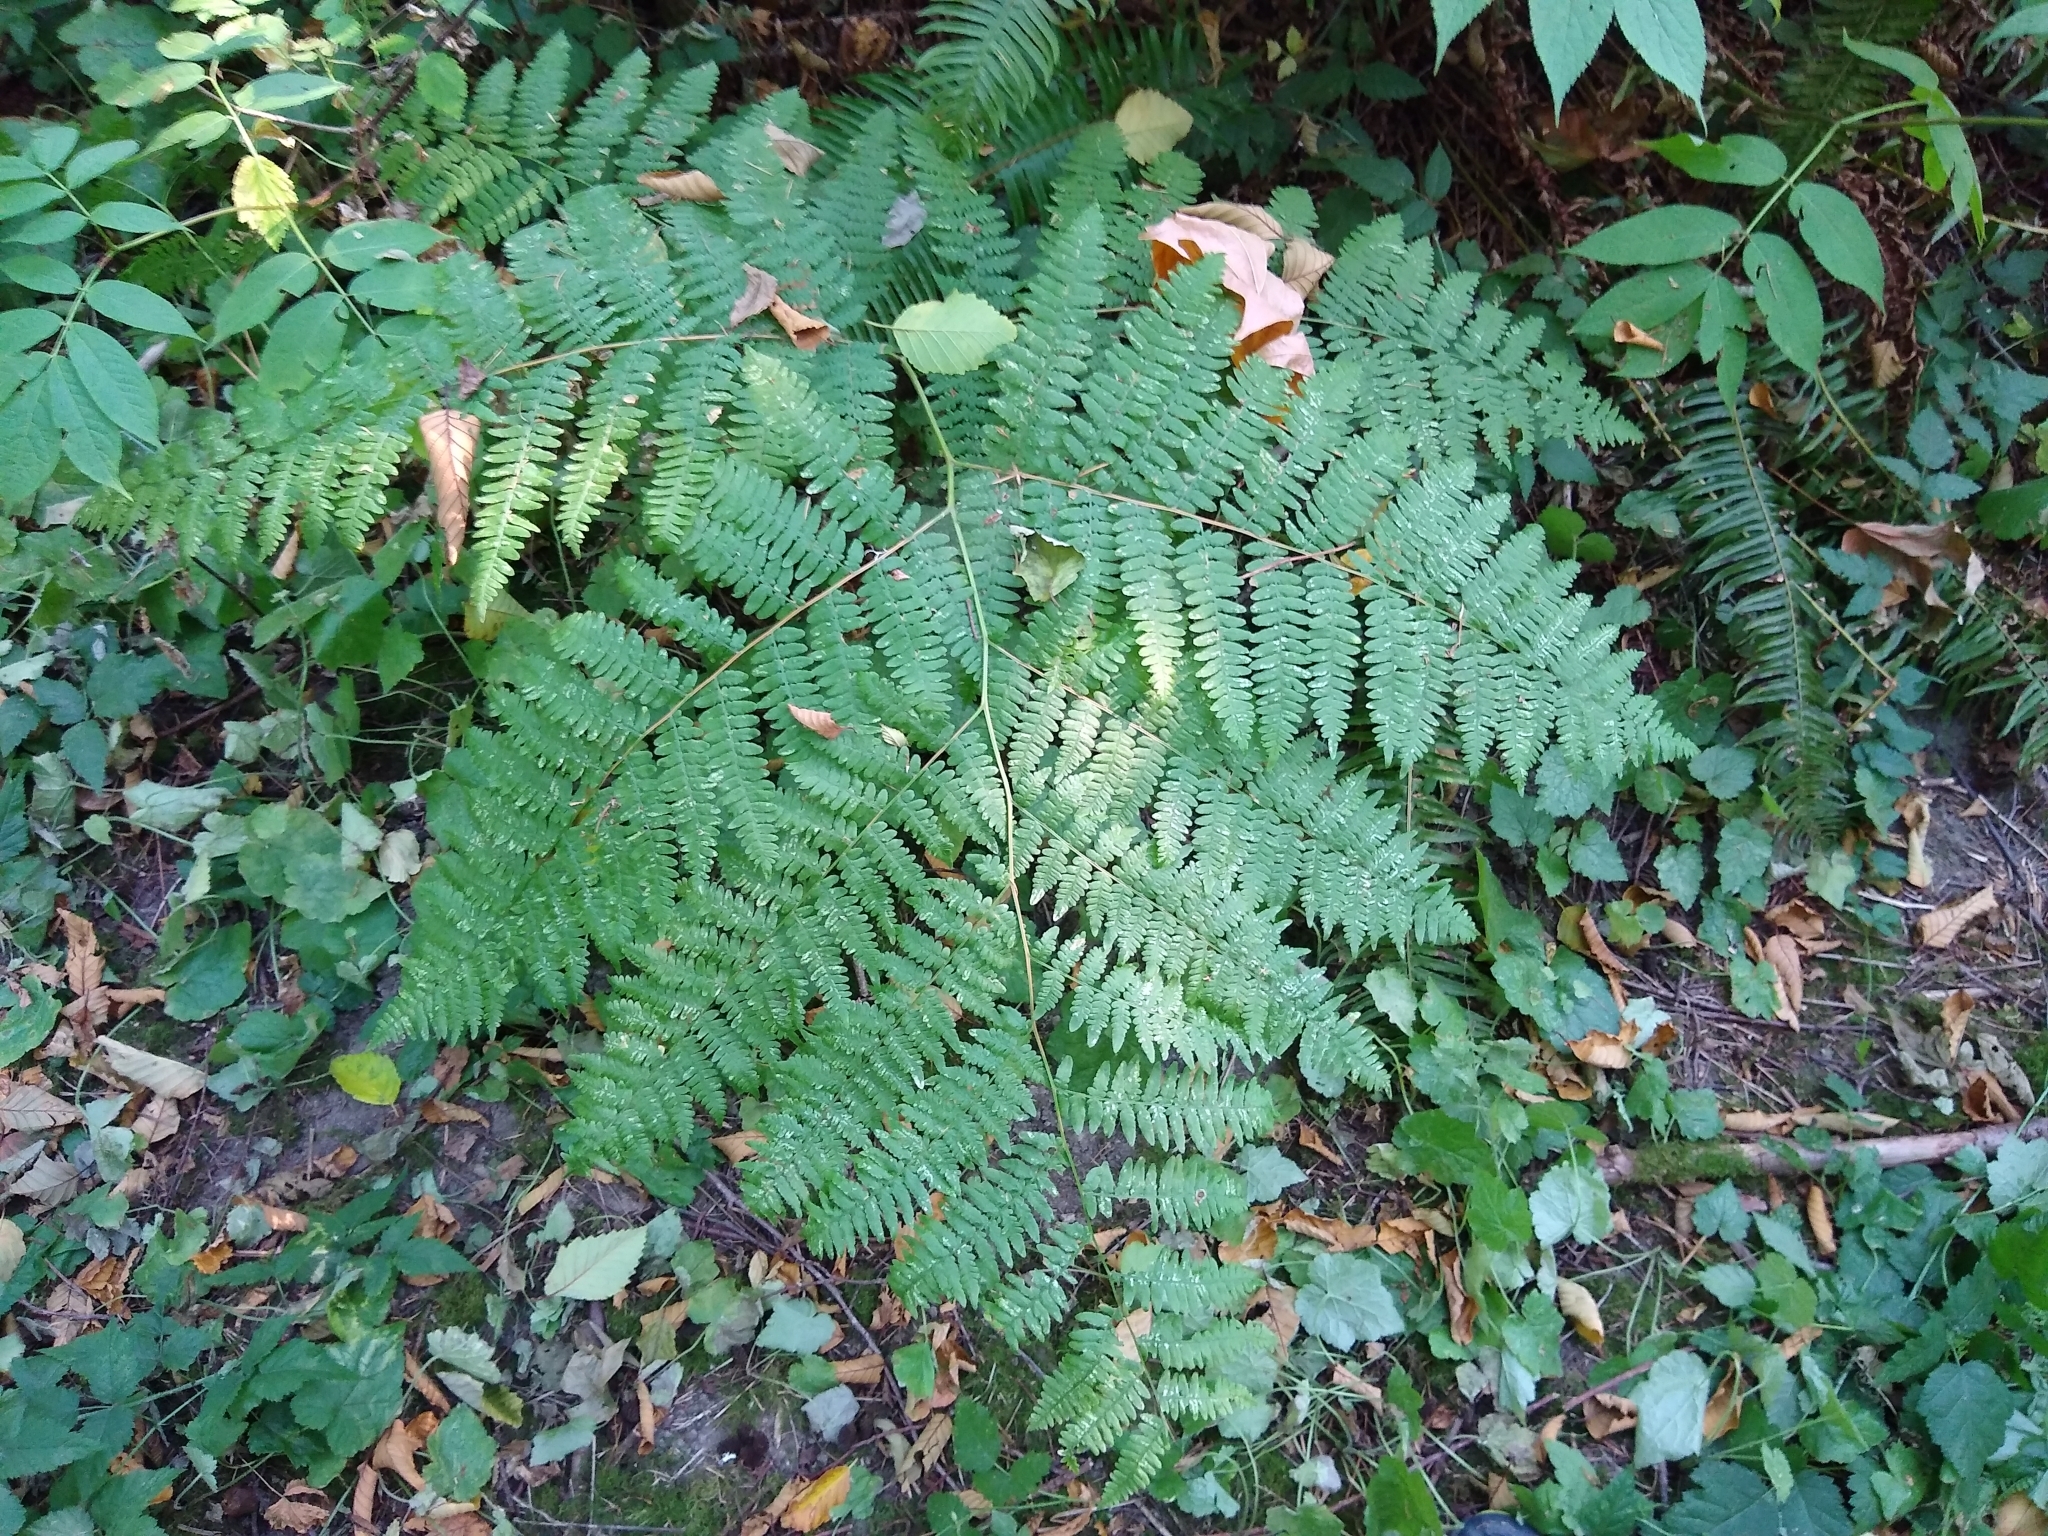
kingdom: Plantae
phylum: Tracheophyta
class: Polypodiopsida
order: Polypodiales
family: Dennstaedtiaceae
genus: Pteridium
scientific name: Pteridium aquilinum
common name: Bracken
